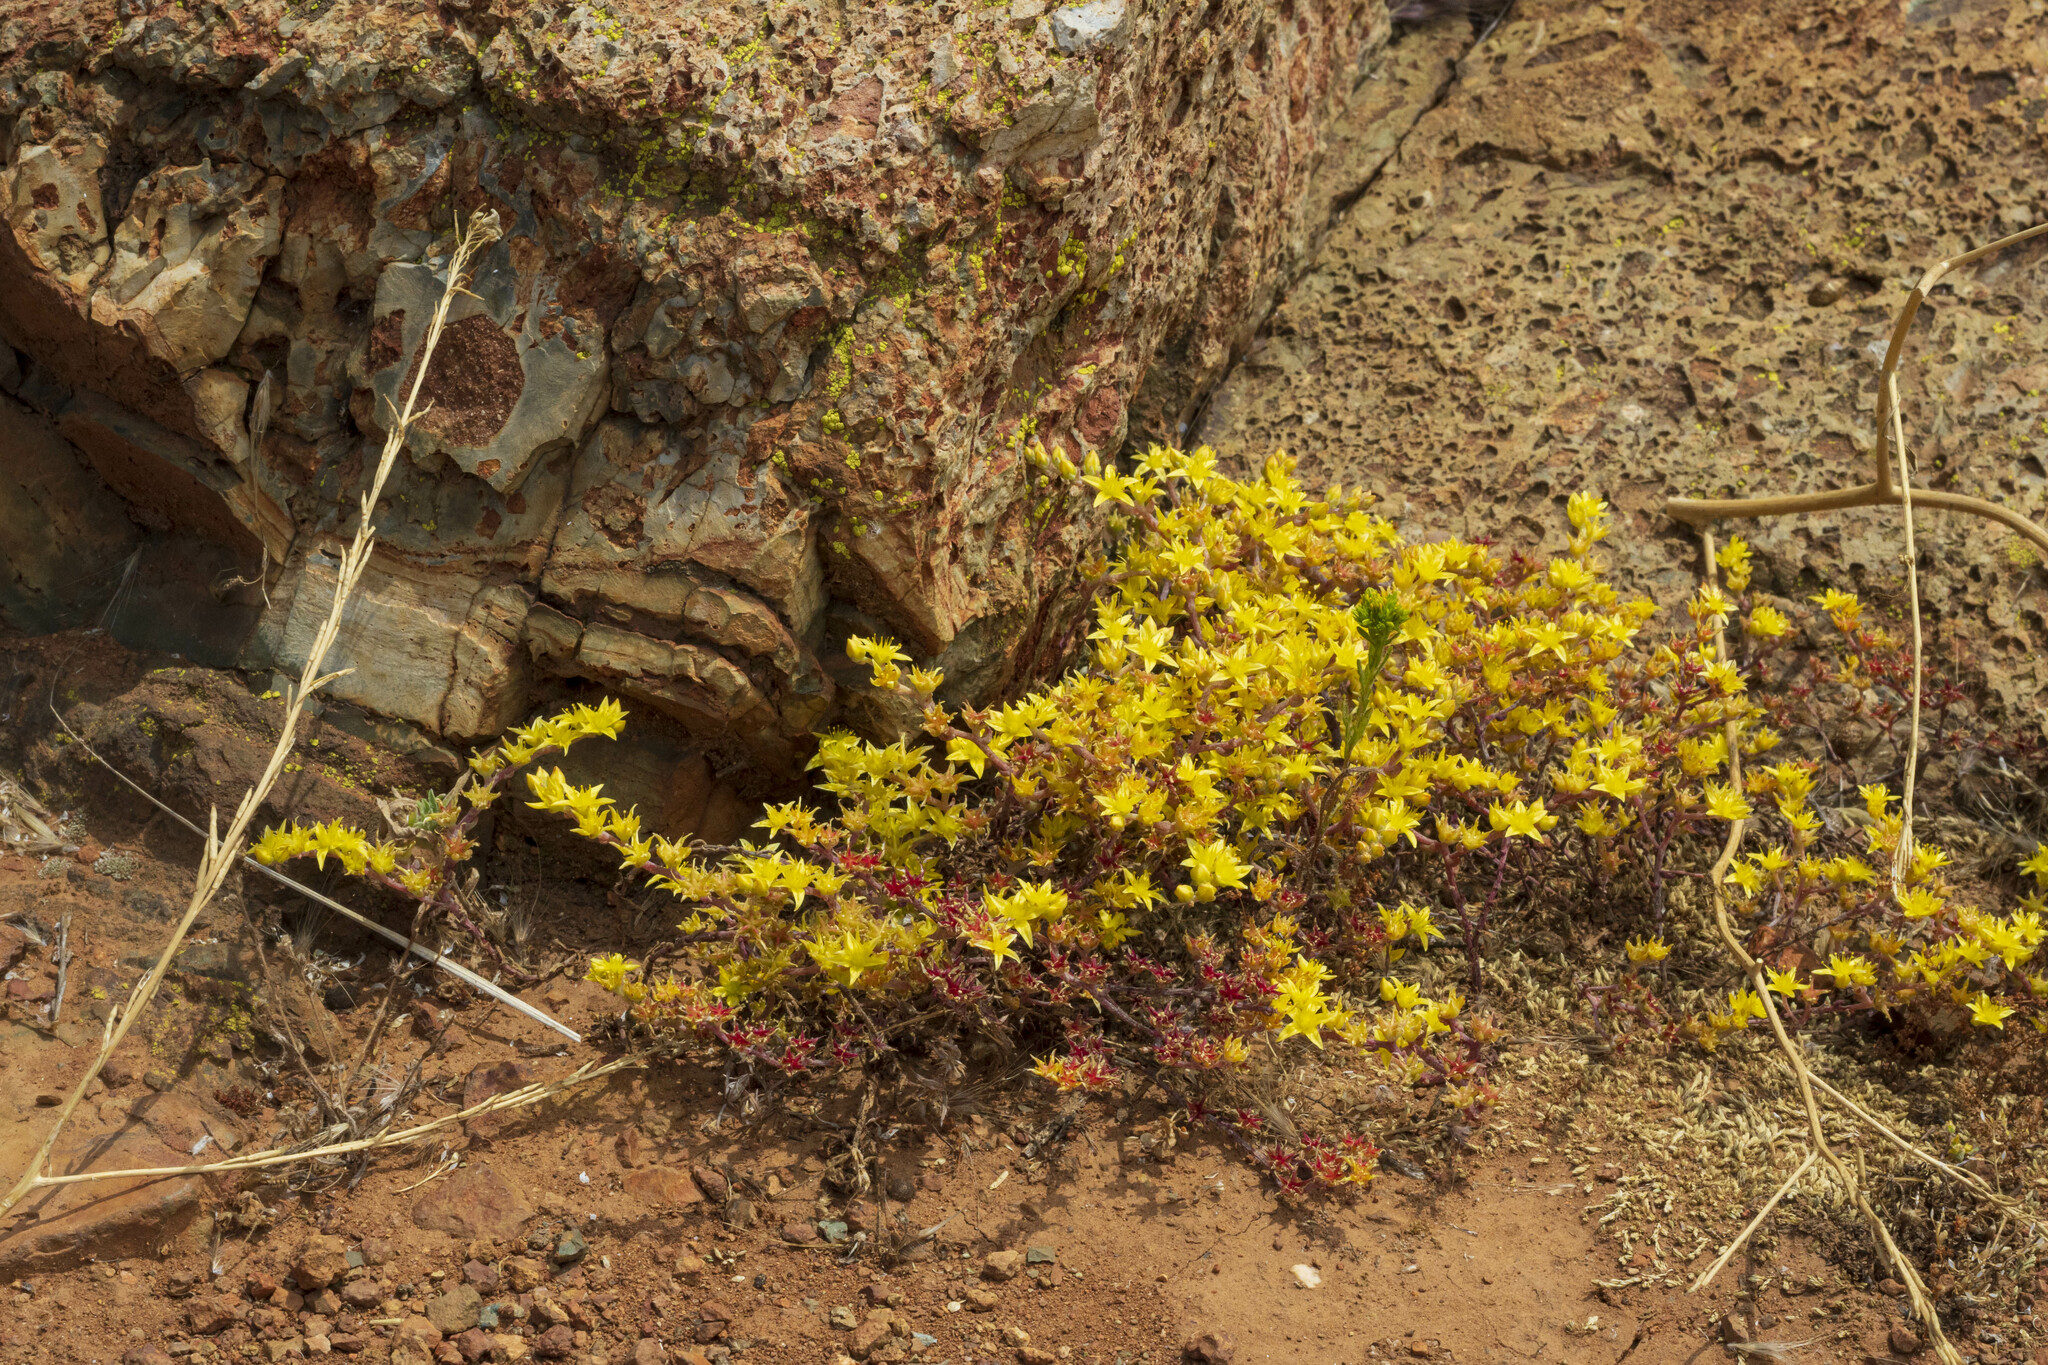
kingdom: Plantae
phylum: Tracheophyta
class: Magnoliopsida
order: Saxifragales
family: Crassulaceae
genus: Dudleya
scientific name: Dudleya variegata
